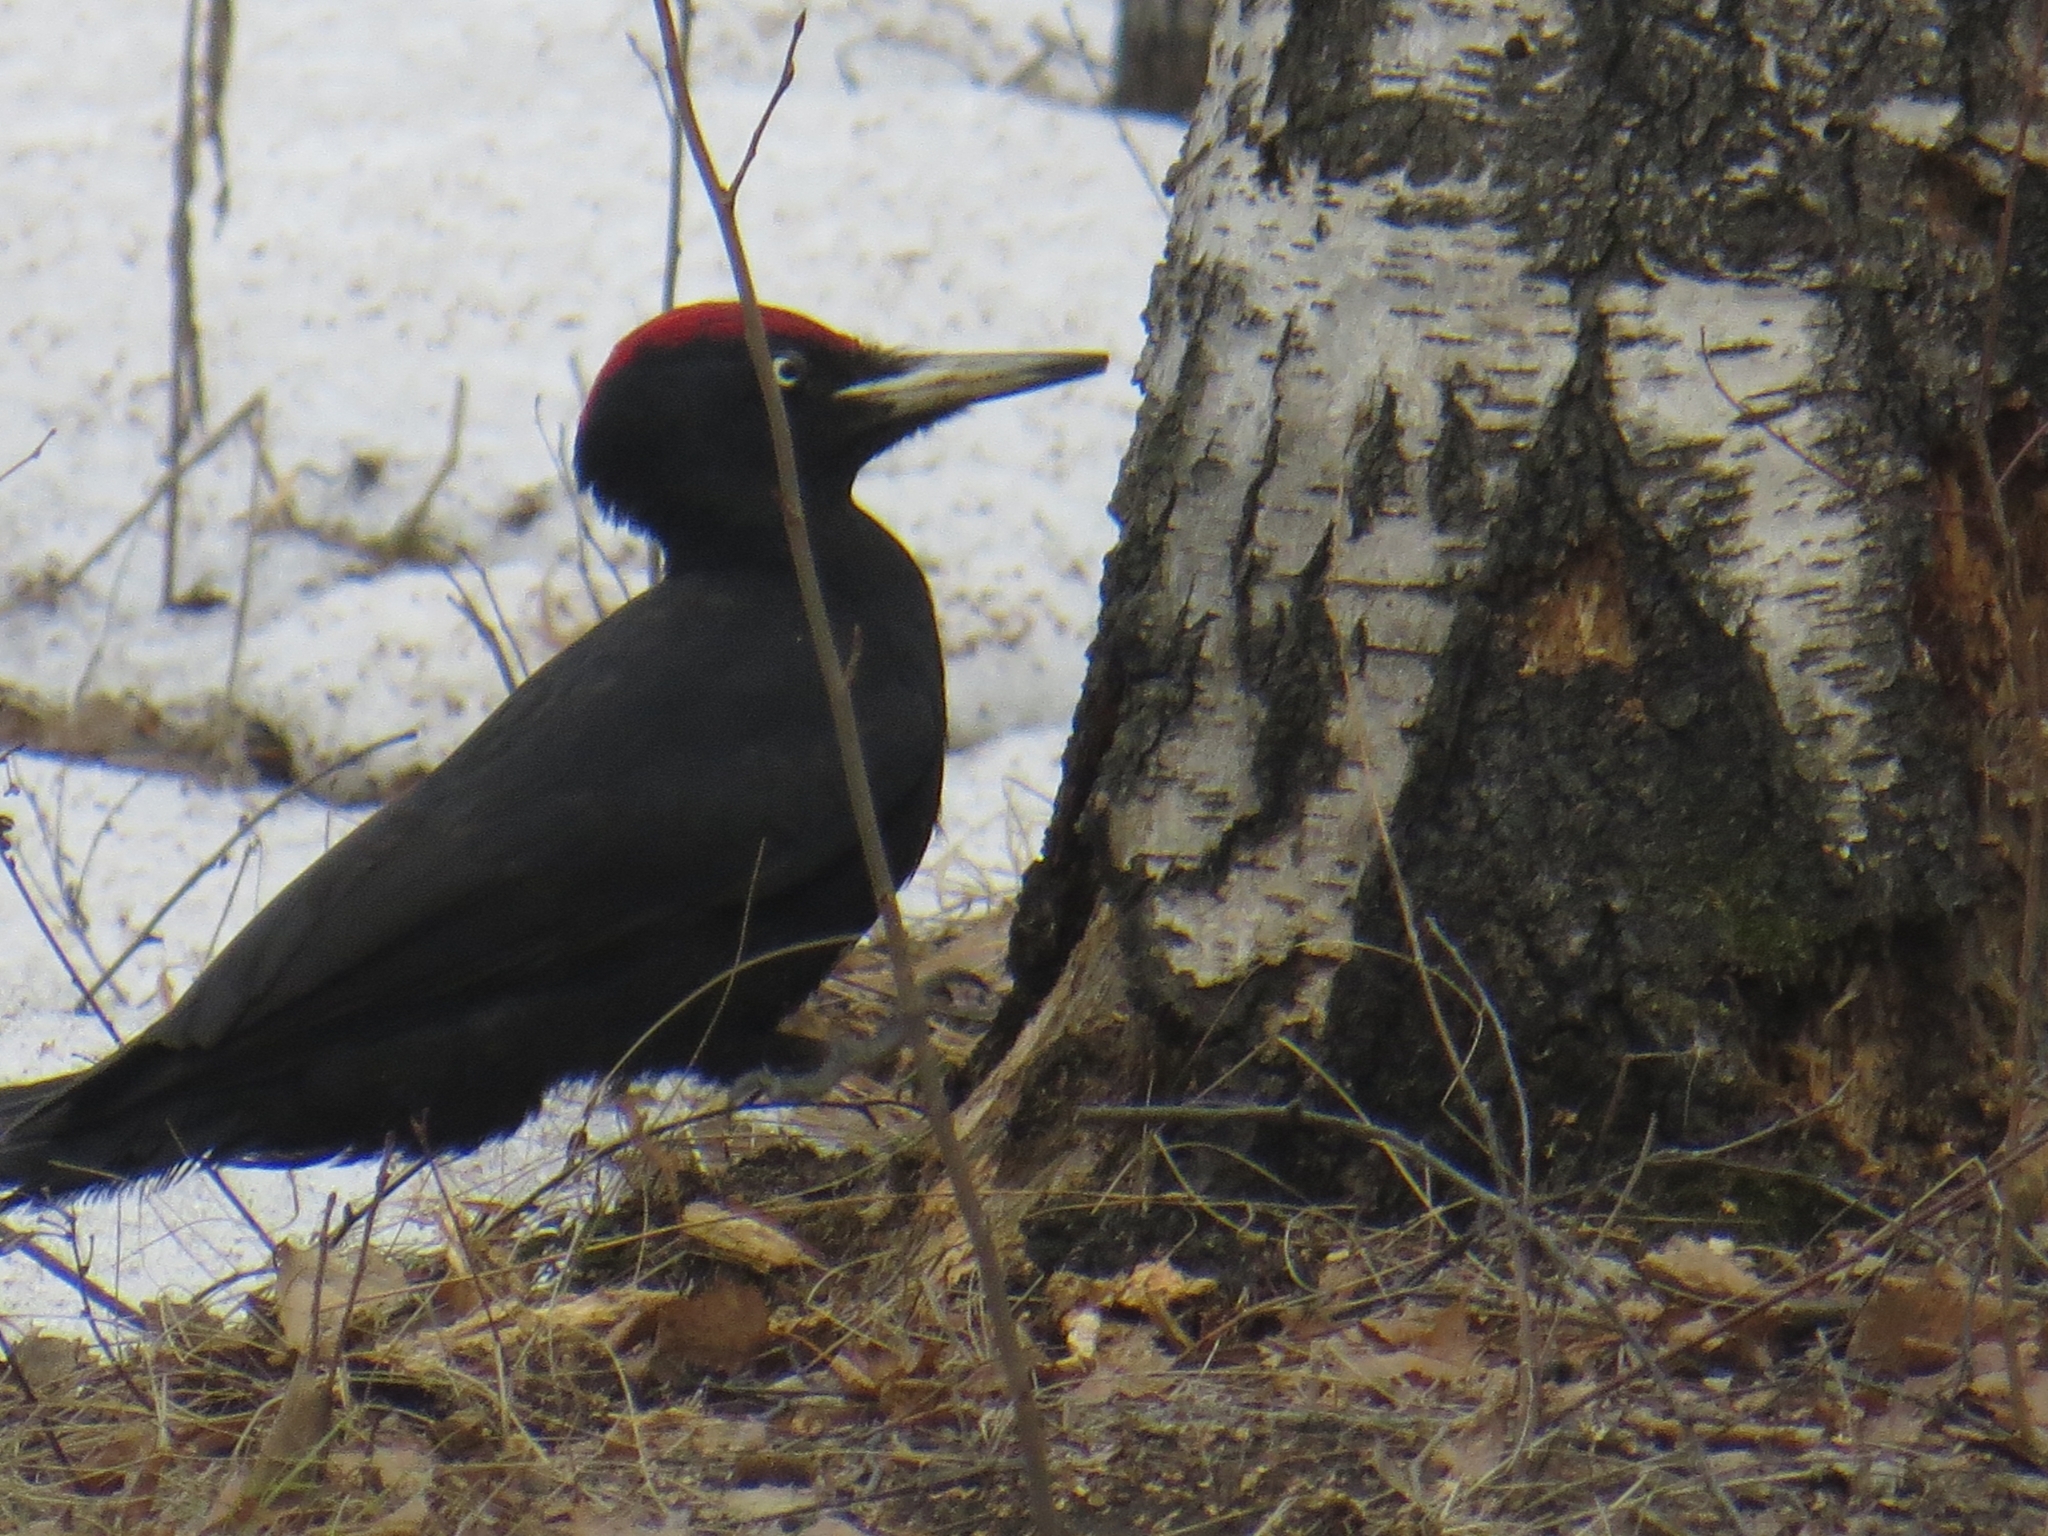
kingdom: Animalia
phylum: Chordata
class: Aves
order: Piciformes
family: Picidae
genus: Dryocopus
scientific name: Dryocopus martius
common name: Black woodpecker
